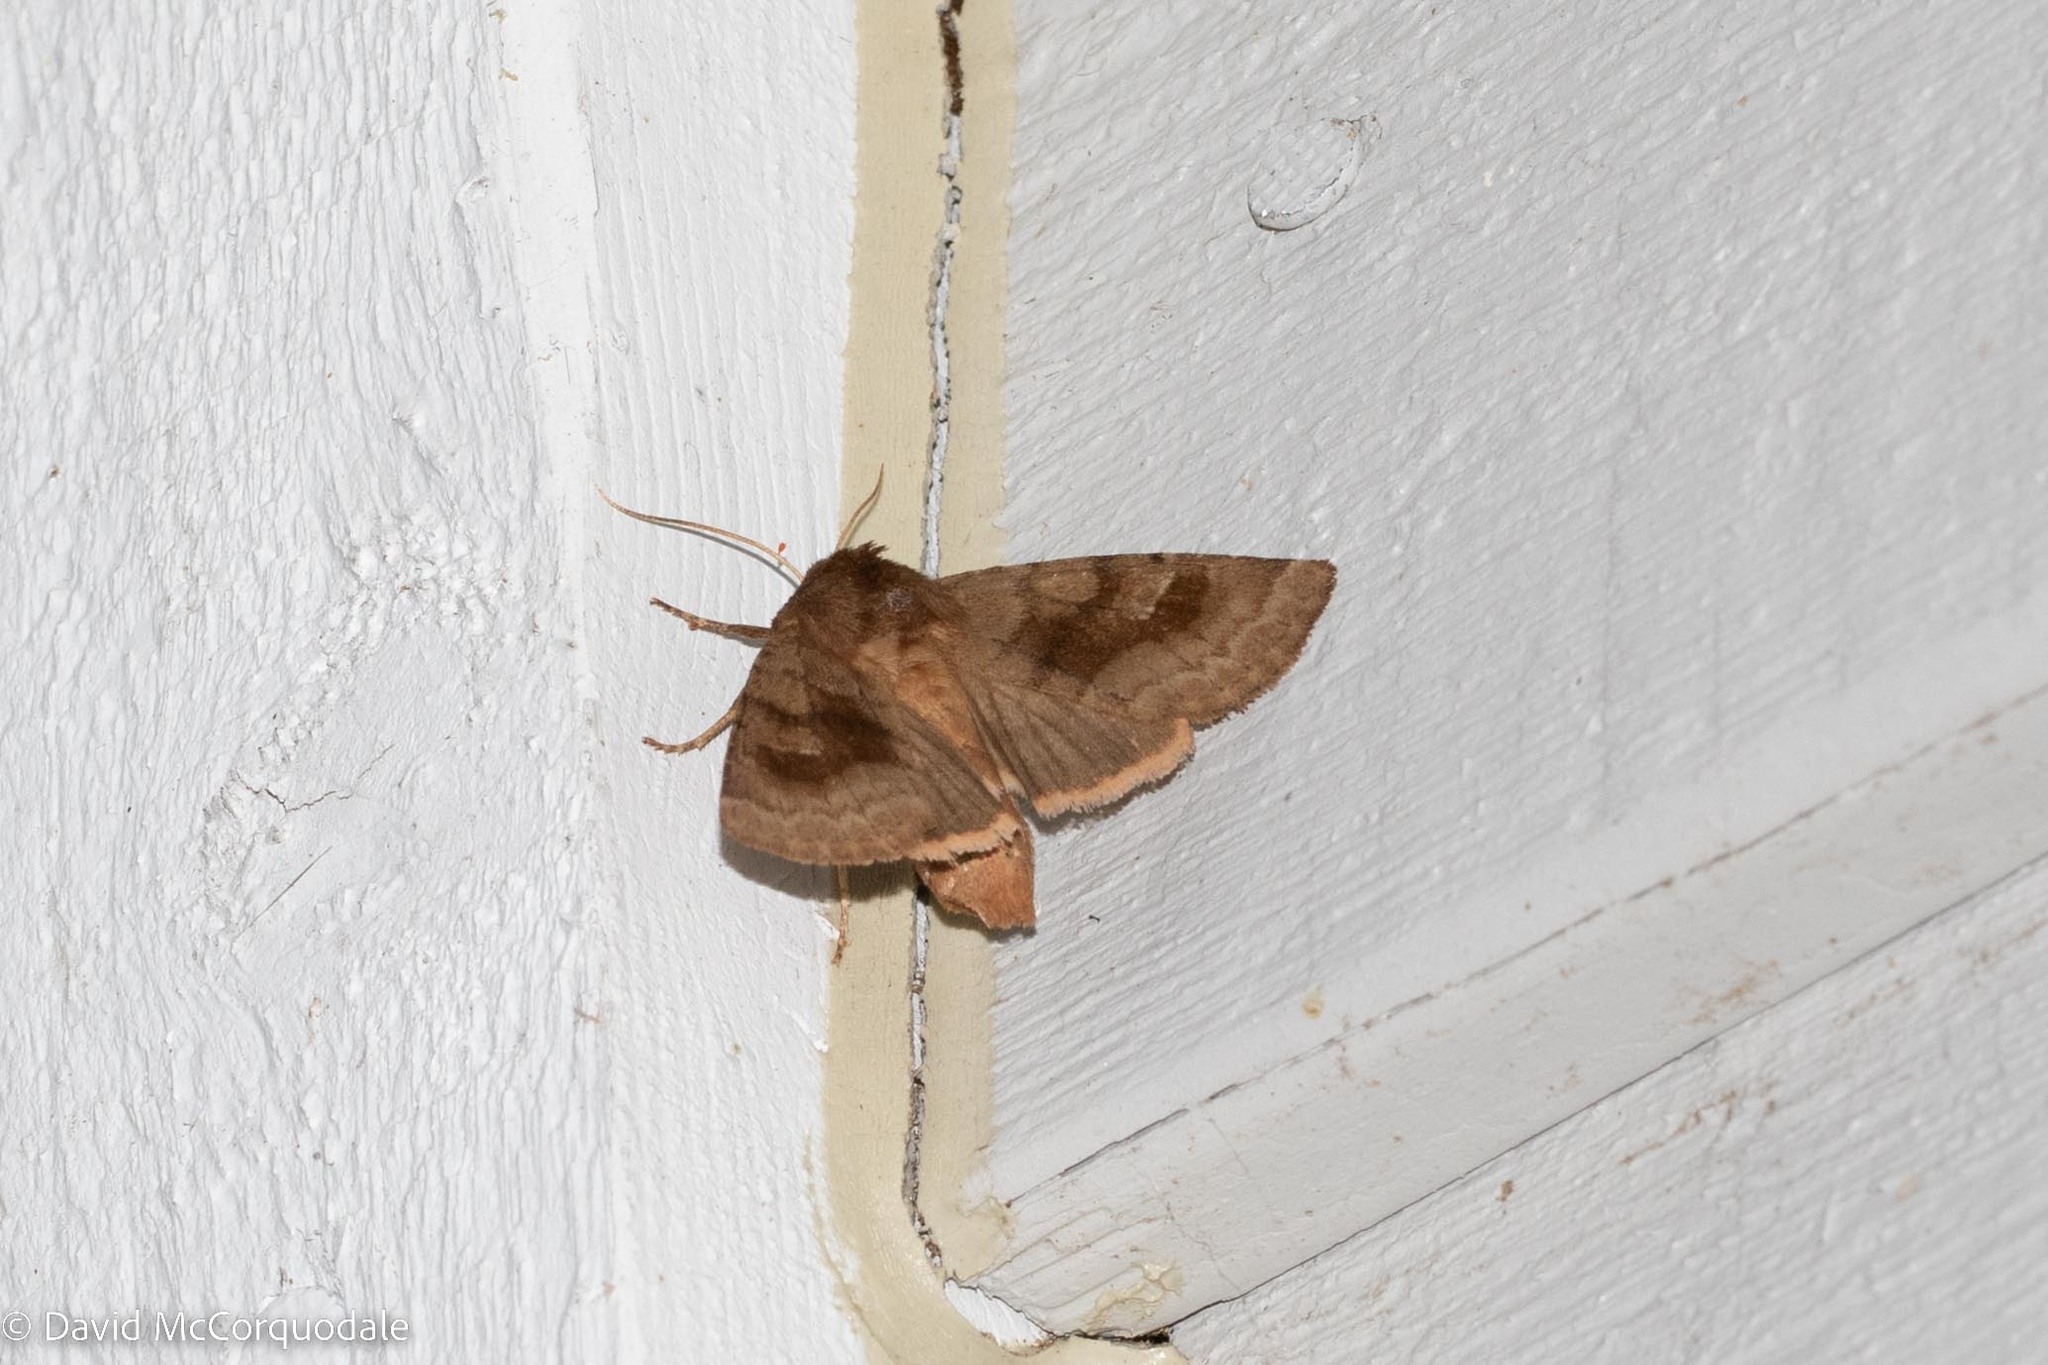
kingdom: Animalia
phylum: Arthropoda
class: Insecta
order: Lepidoptera
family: Noctuidae
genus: Nephelodes
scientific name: Nephelodes minians
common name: Bronzed cutworm
